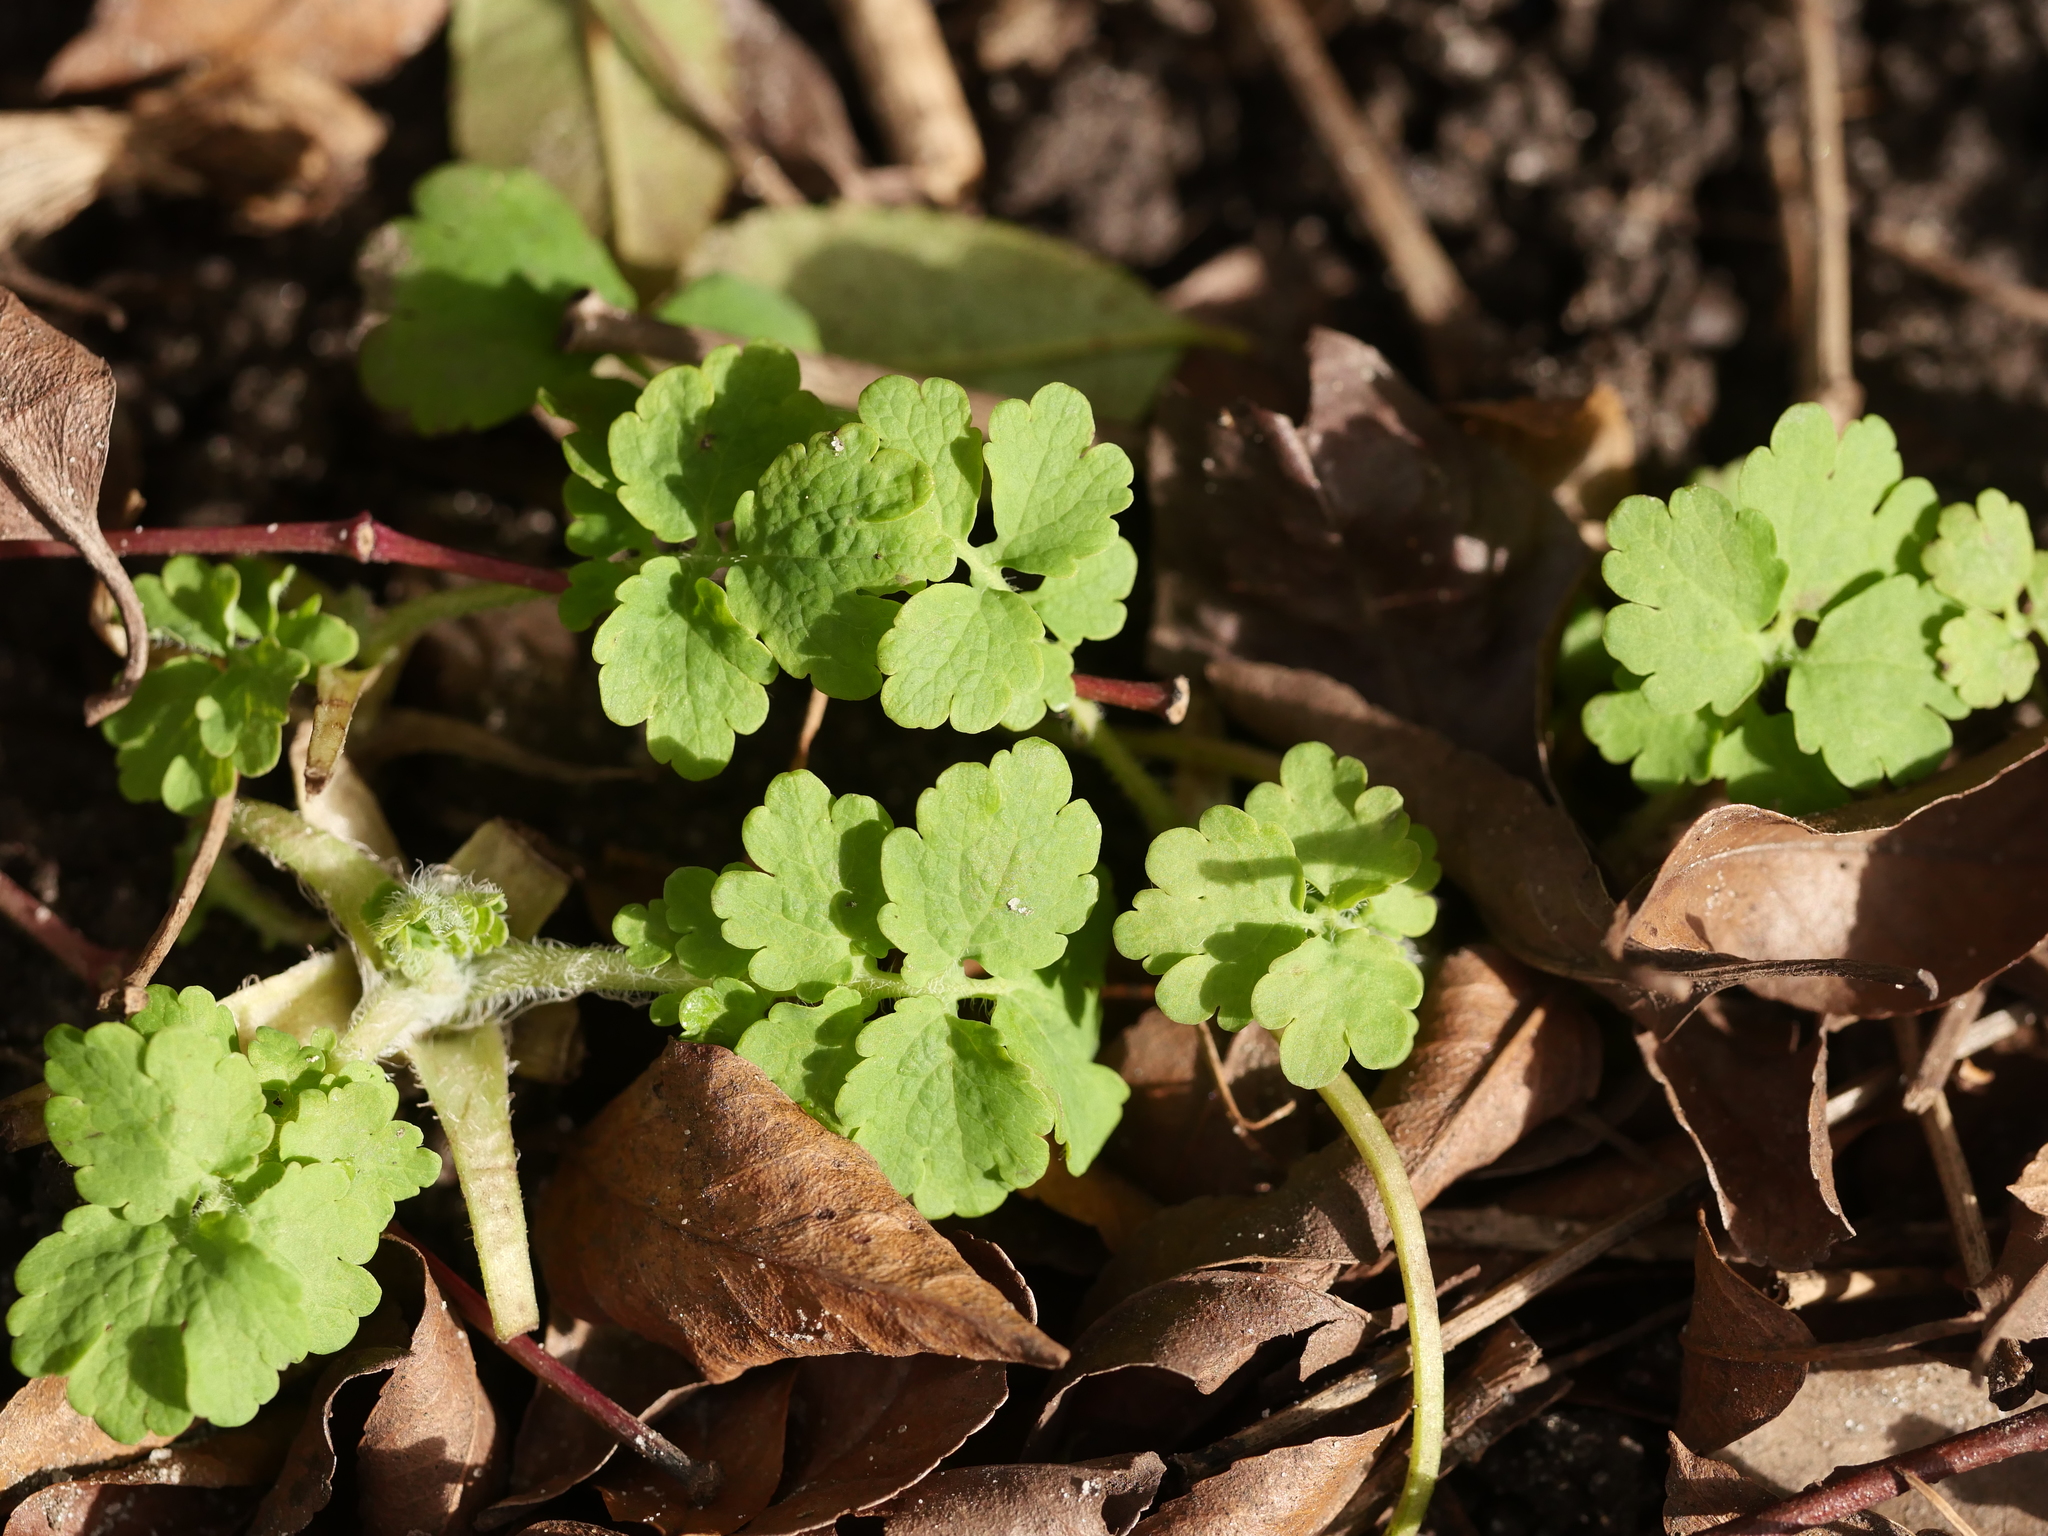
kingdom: Plantae
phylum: Tracheophyta
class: Magnoliopsida
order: Ranunculales
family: Papaveraceae
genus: Chelidonium
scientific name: Chelidonium majus
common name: Greater celandine
